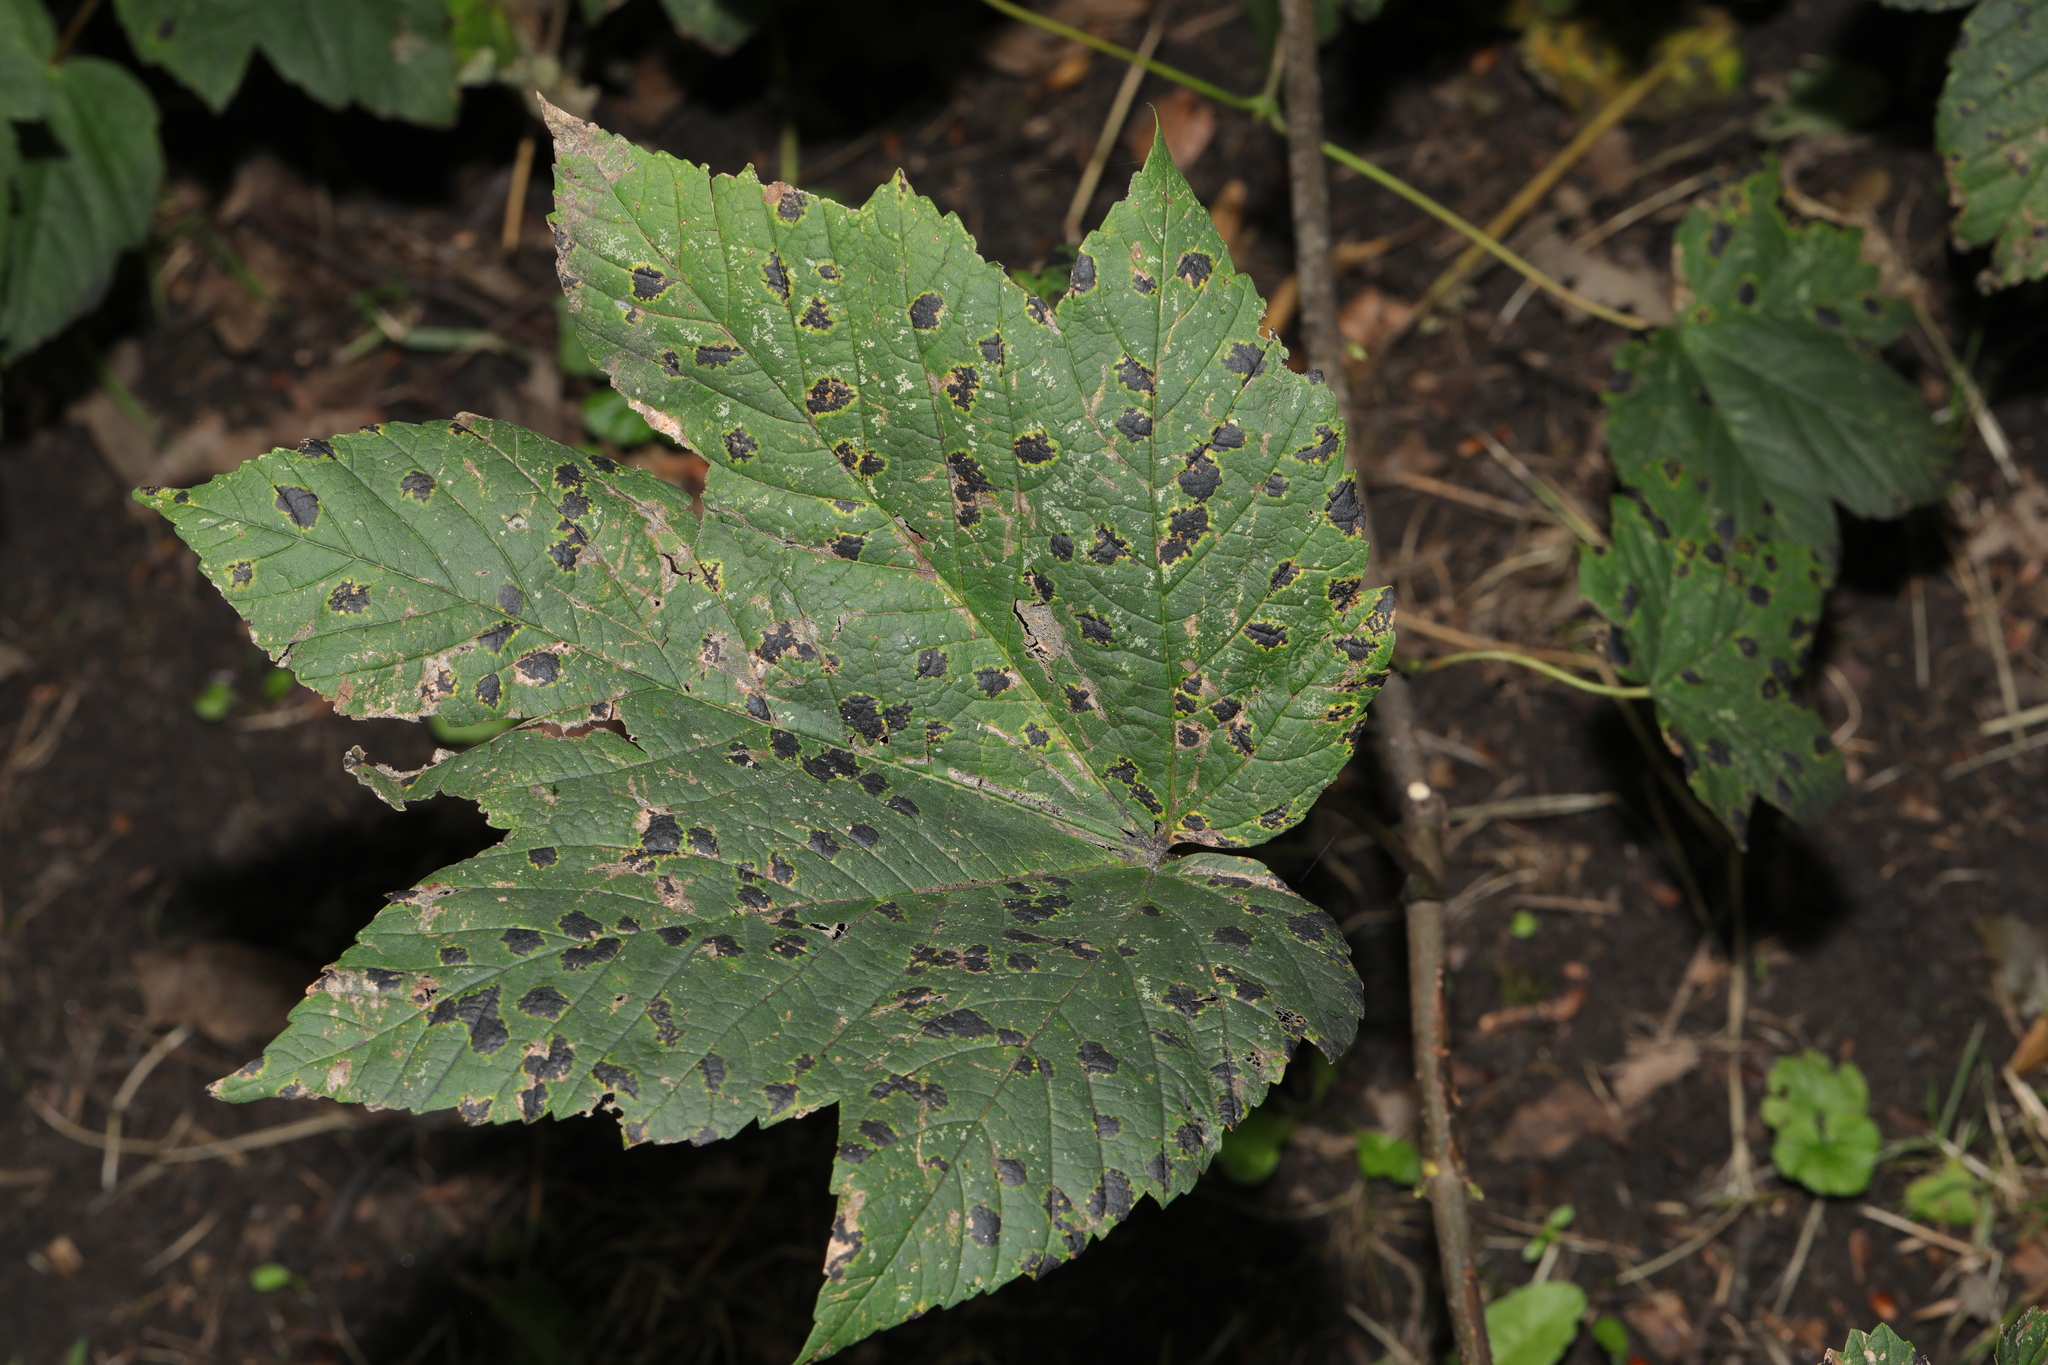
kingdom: Plantae
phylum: Tracheophyta
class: Magnoliopsida
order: Sapindales
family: Sapindaceae
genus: Acer
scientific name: Acer pseudoplatanus
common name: Sycamore
